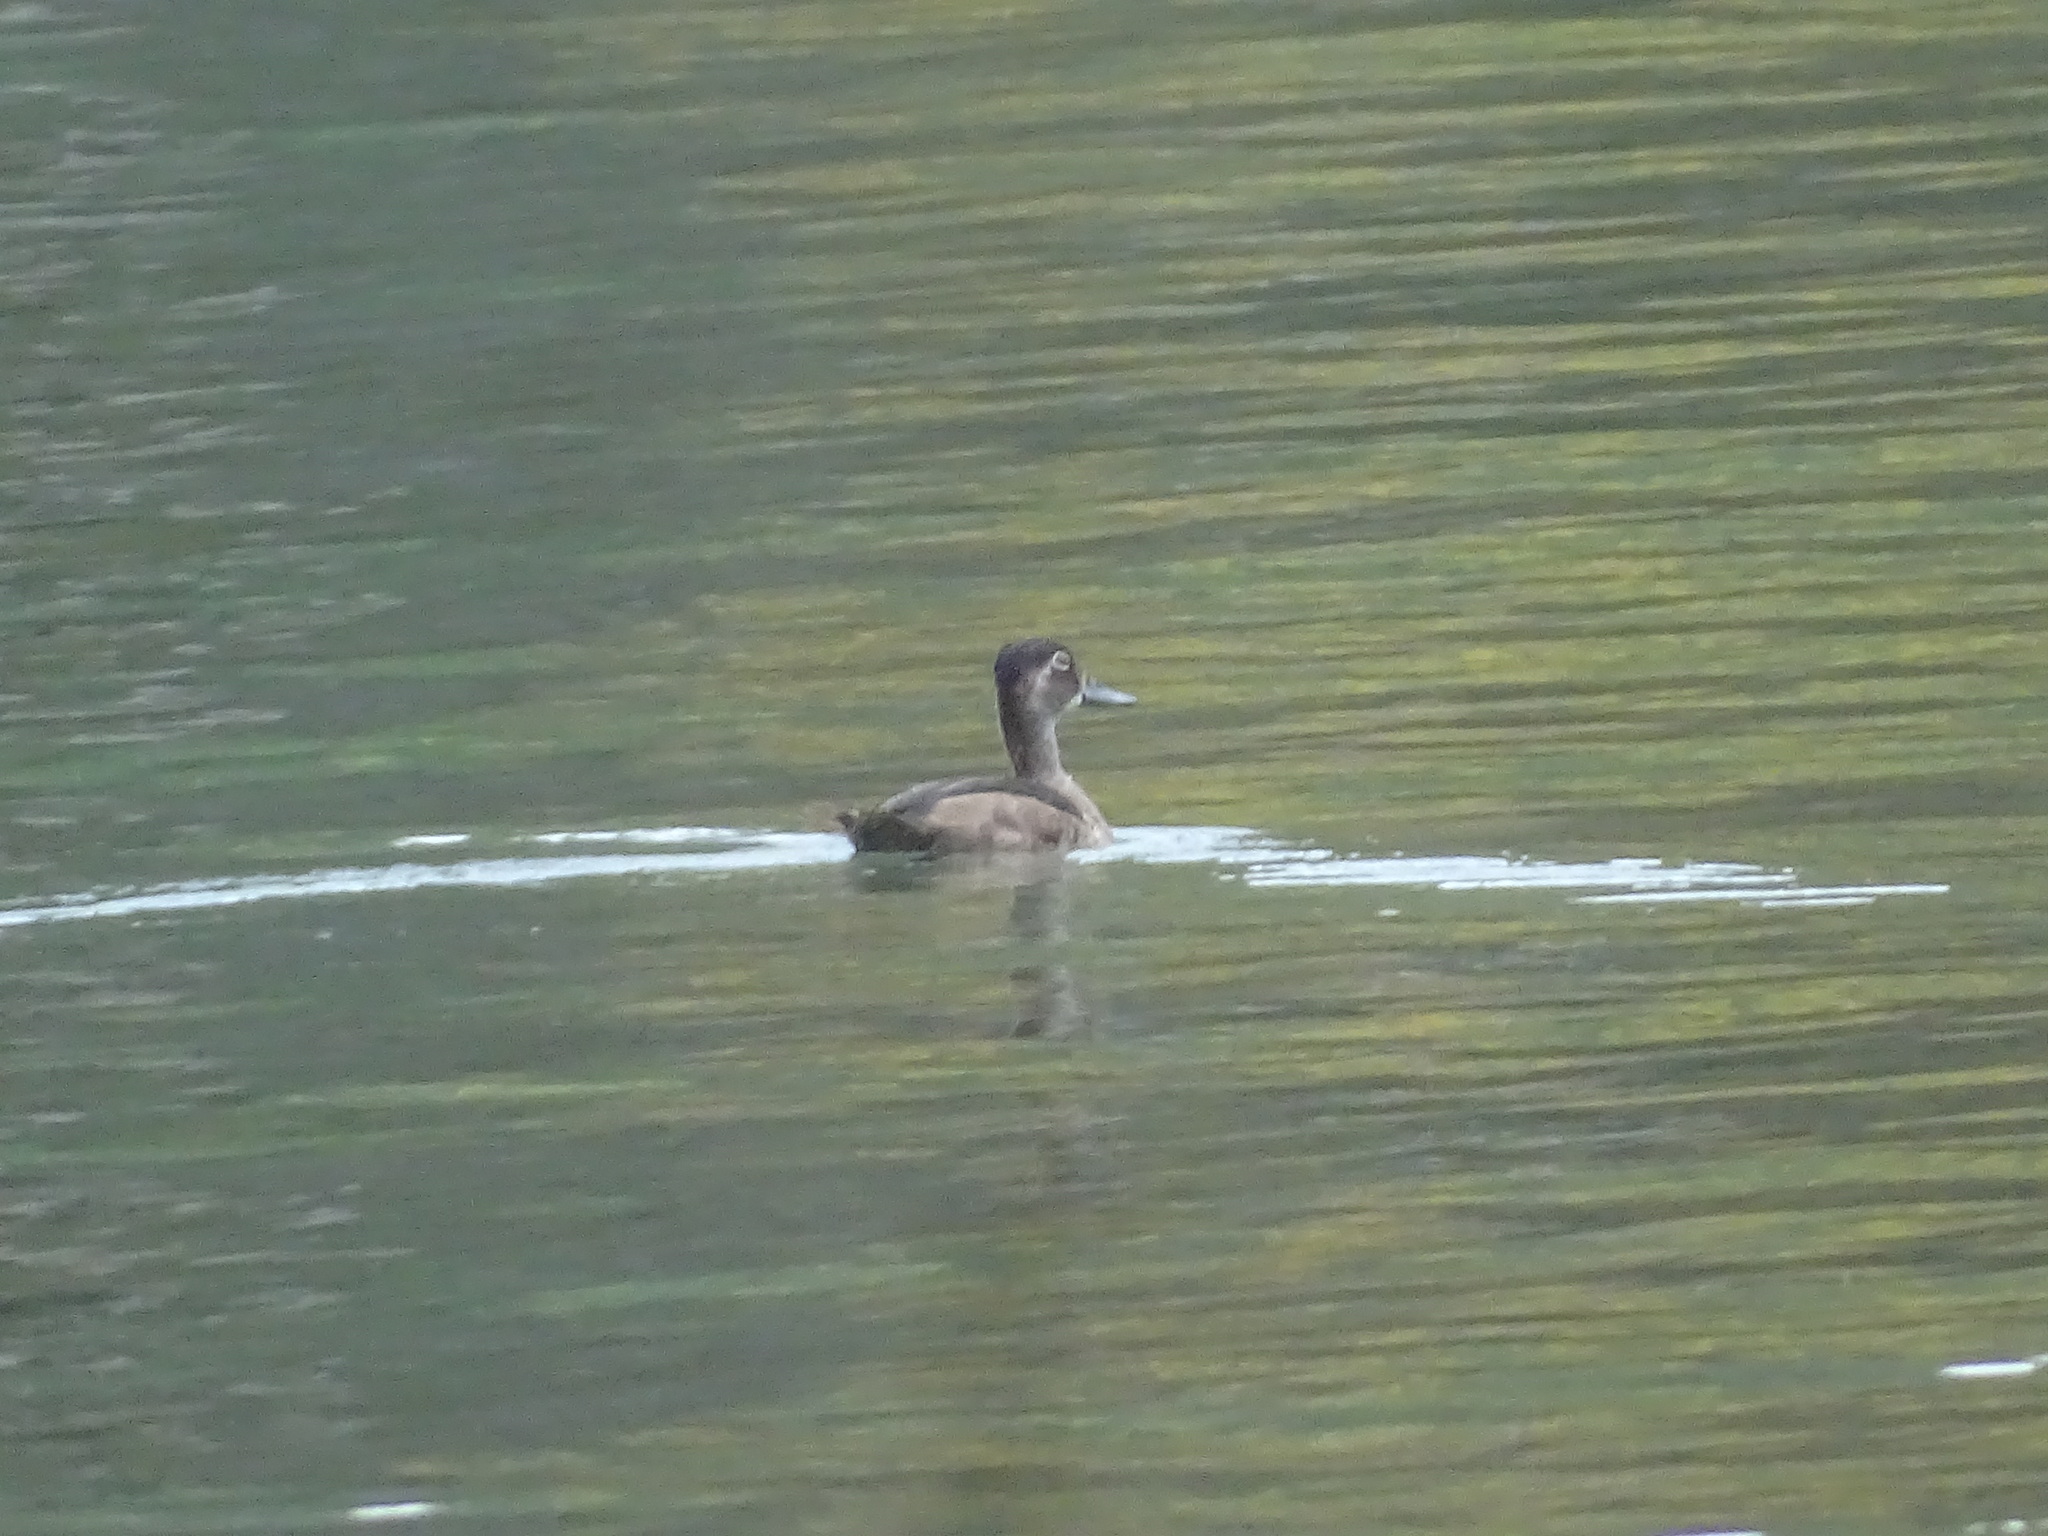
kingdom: Animalia
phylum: Chordata
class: Aves
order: Anseriformes
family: Anatidae
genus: Aythya
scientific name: Aythya collaris
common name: Ring-necked duck
